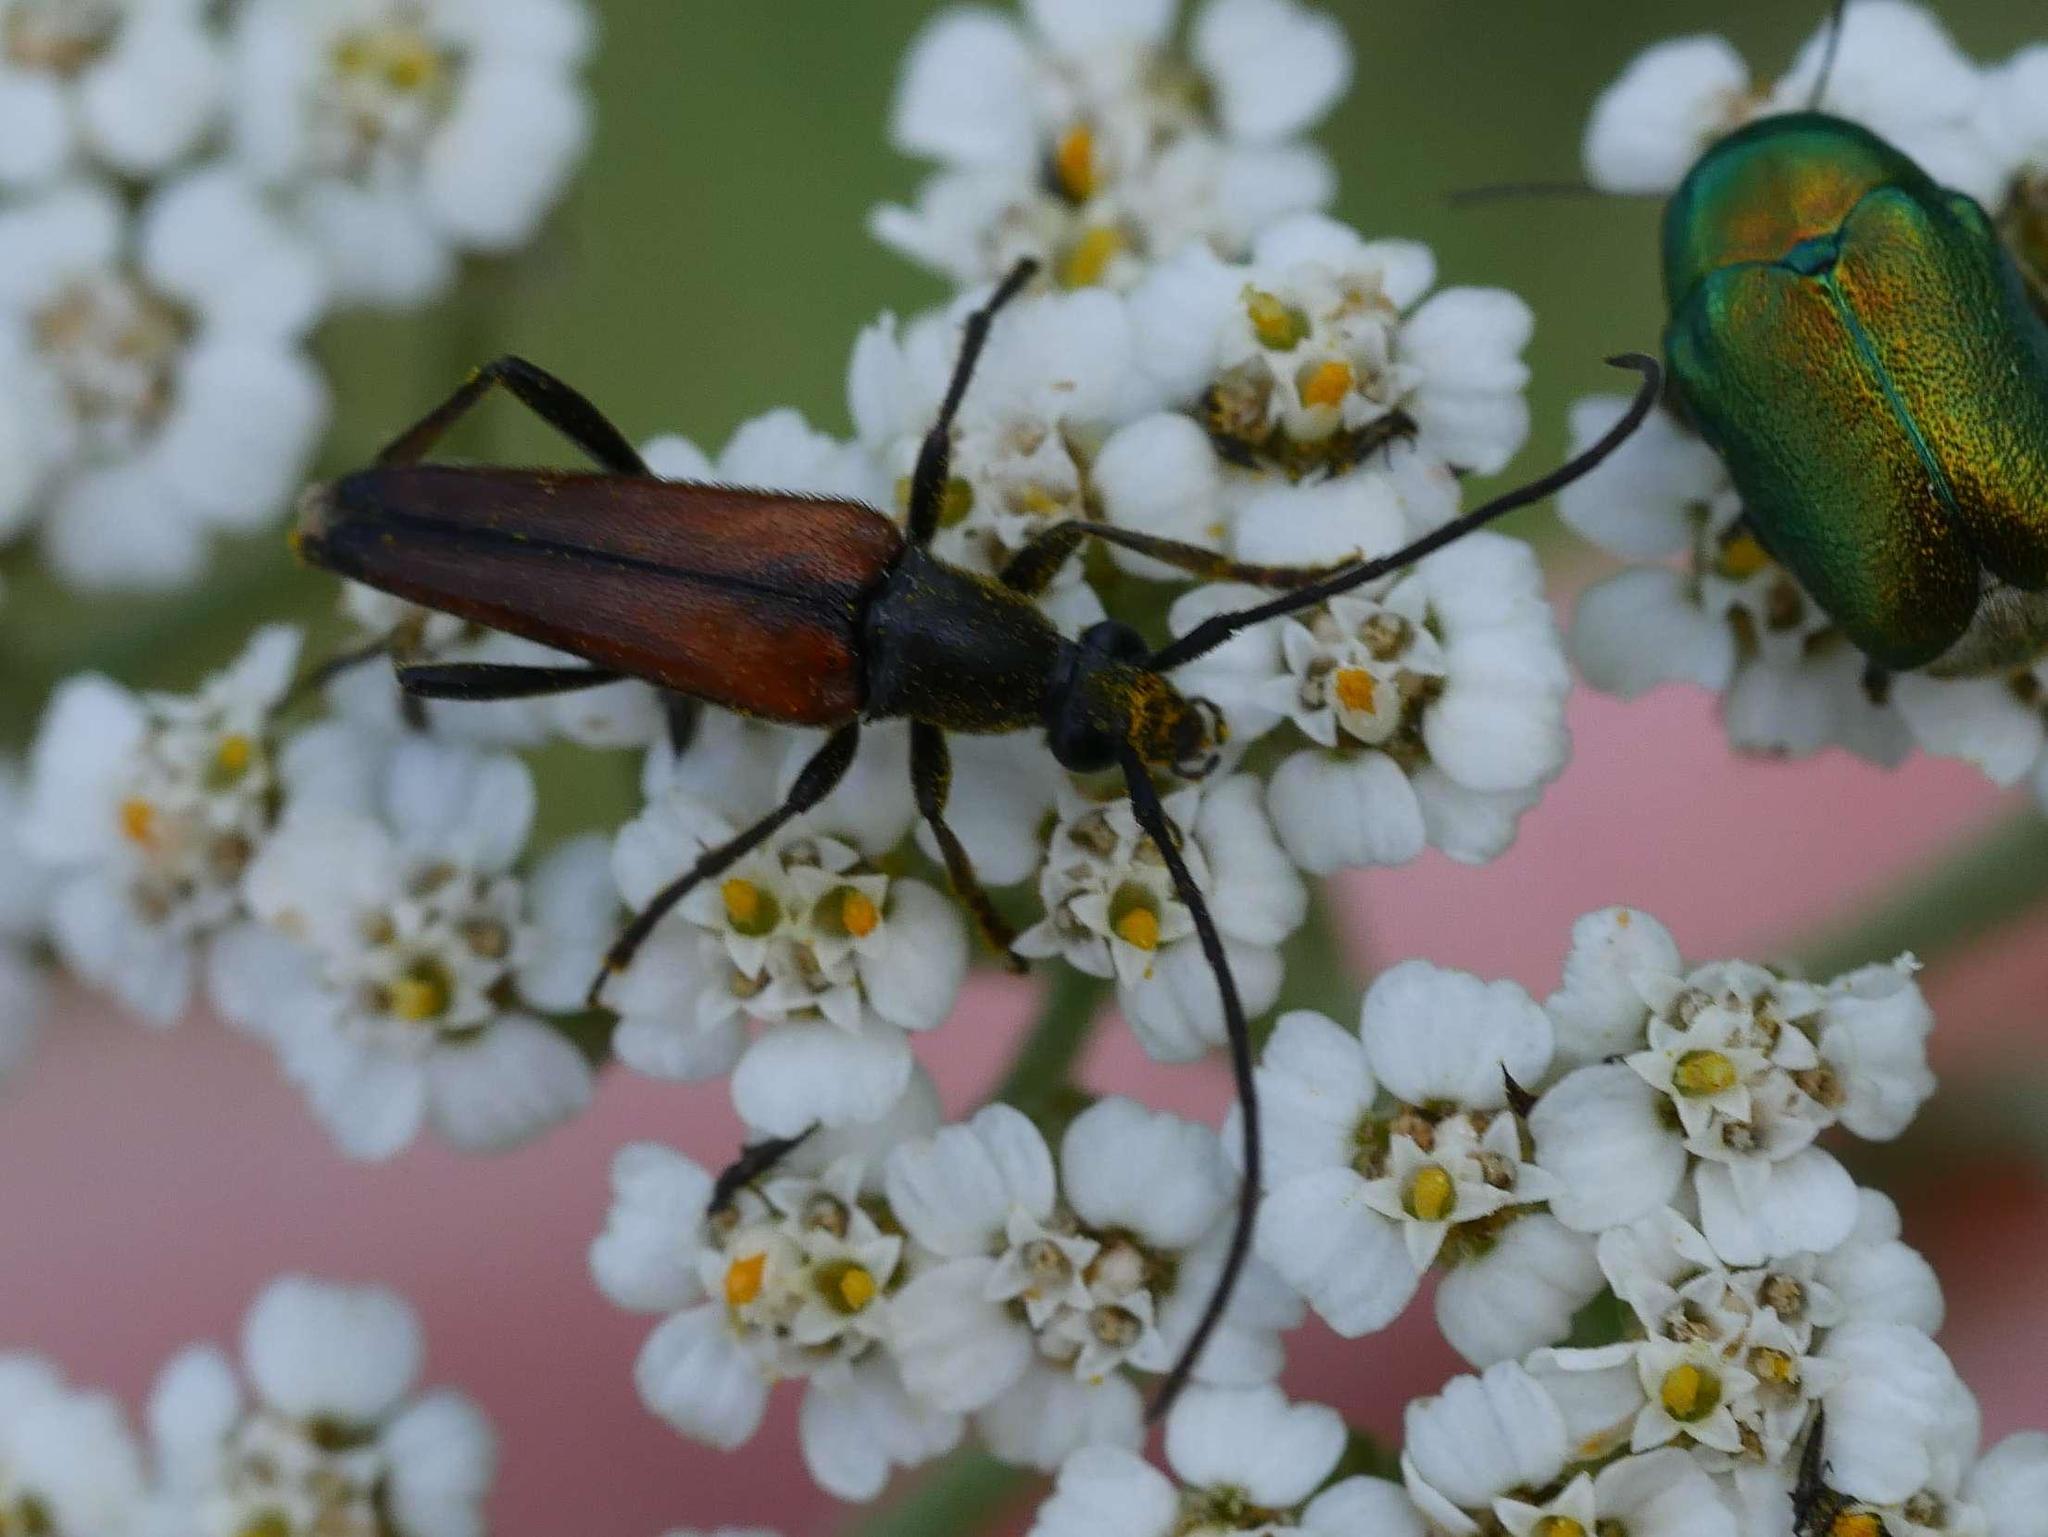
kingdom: Animalia
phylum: Arthropoda
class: Insecta
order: Coleoptera
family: Cerambycidae
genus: Stenurella
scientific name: Stenurella bifasciata
